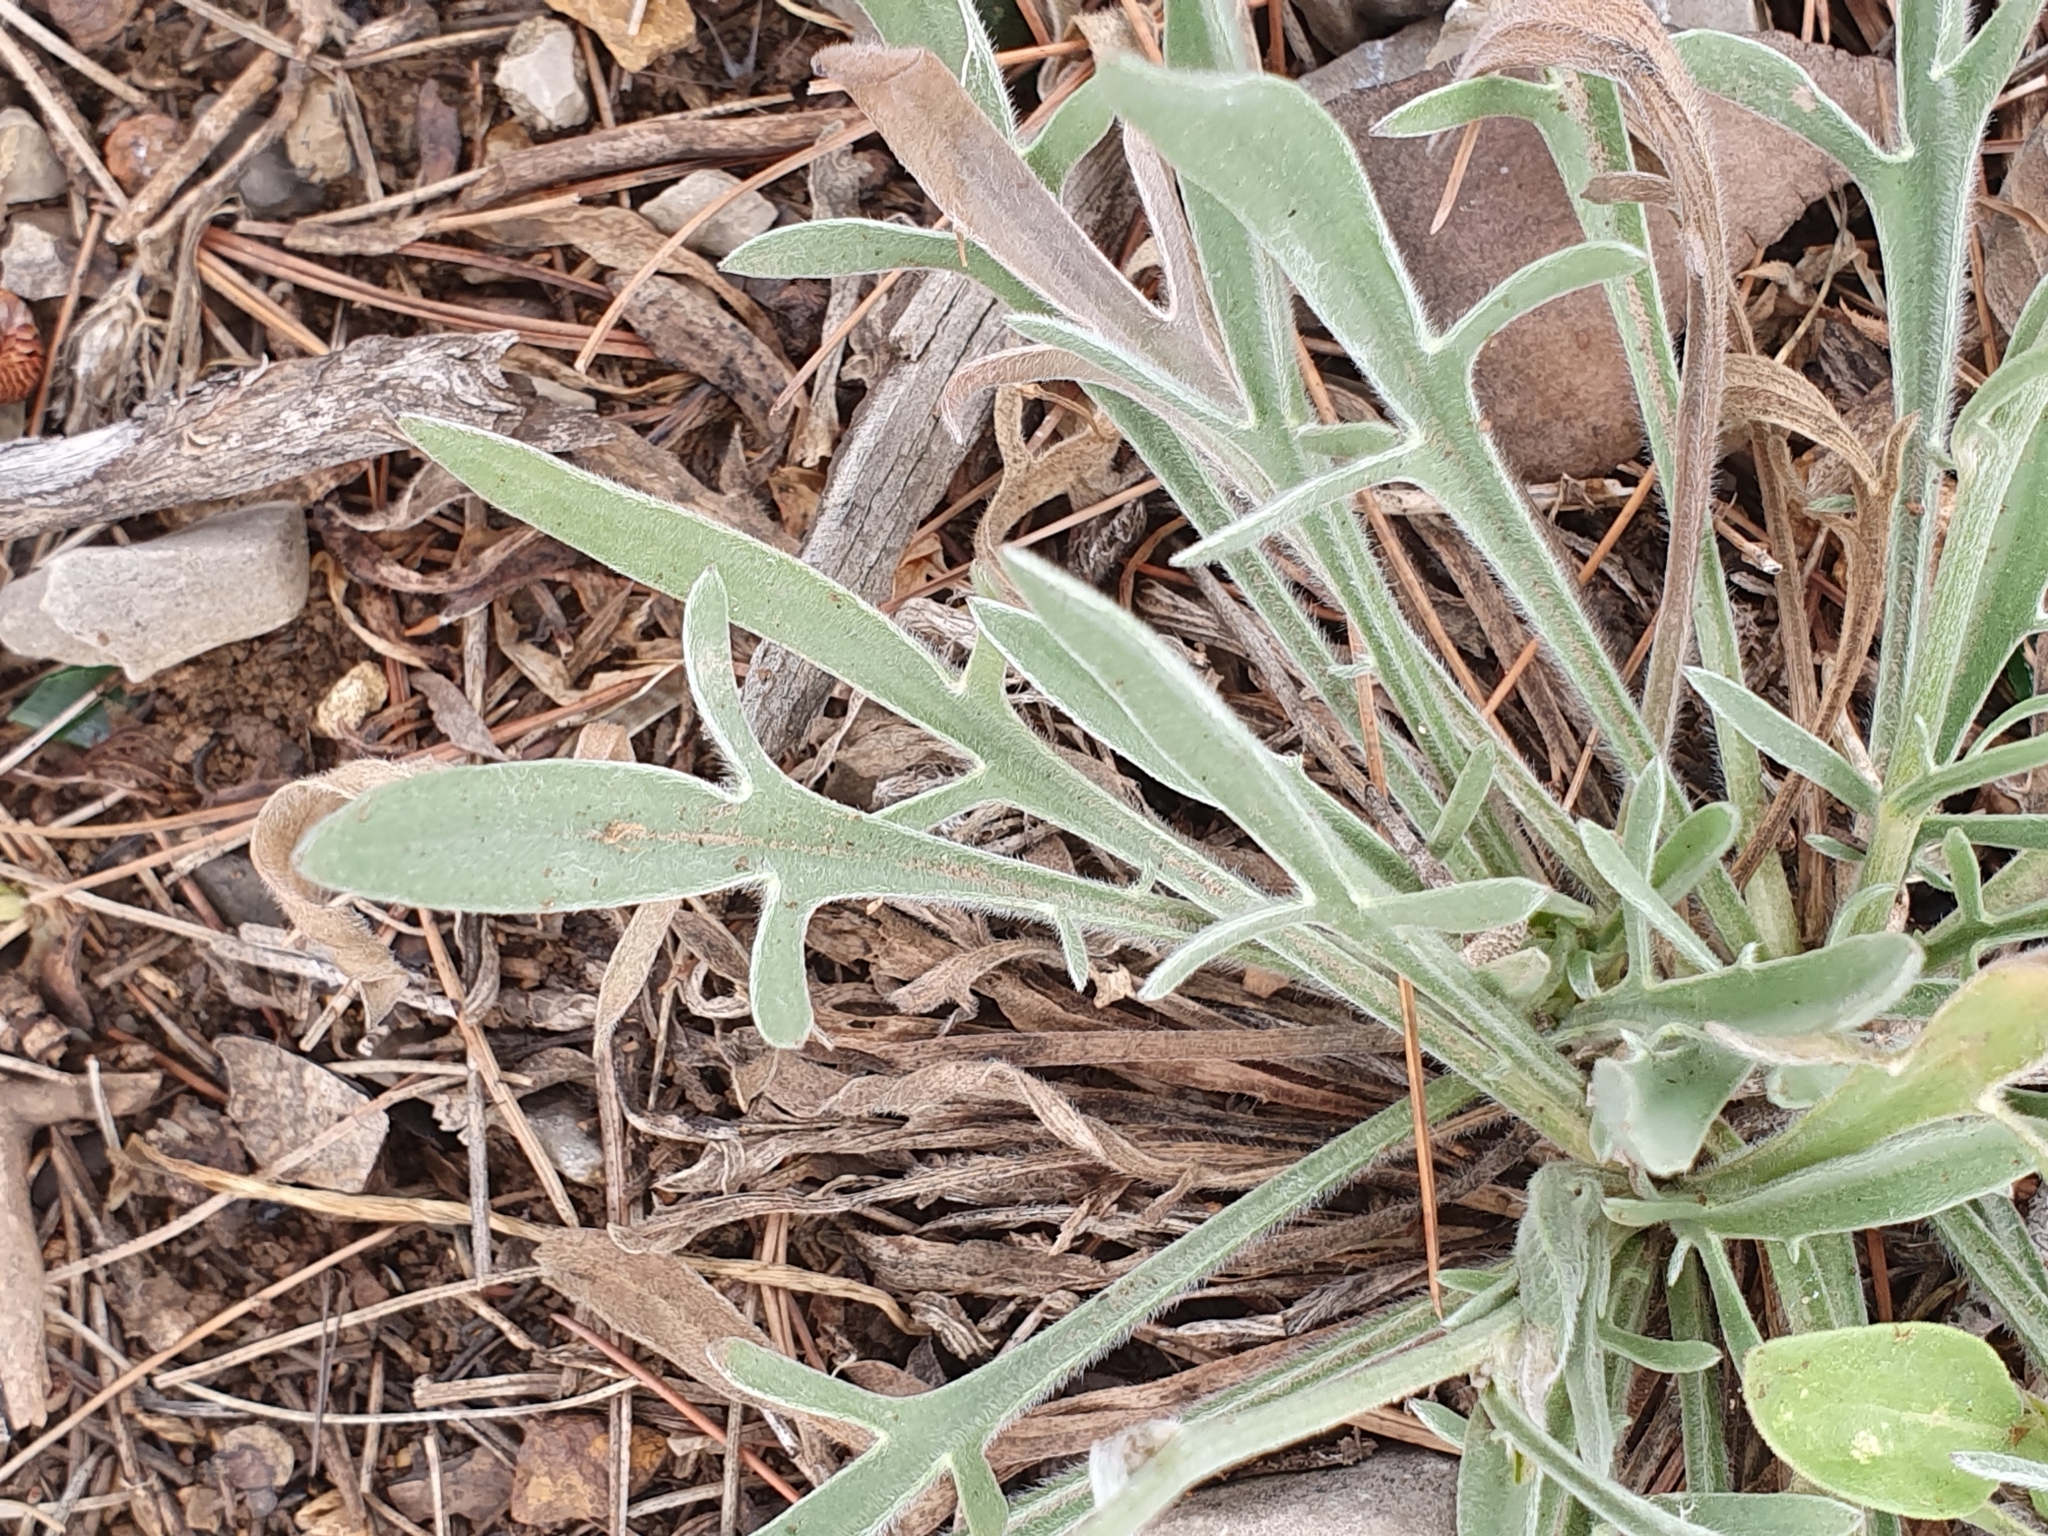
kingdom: Plantae
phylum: Tracheophyta
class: Magnoliopsida
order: Asterales
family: Asteraceae
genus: Catananche
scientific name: Catananche caerulea
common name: Blue cupidone
